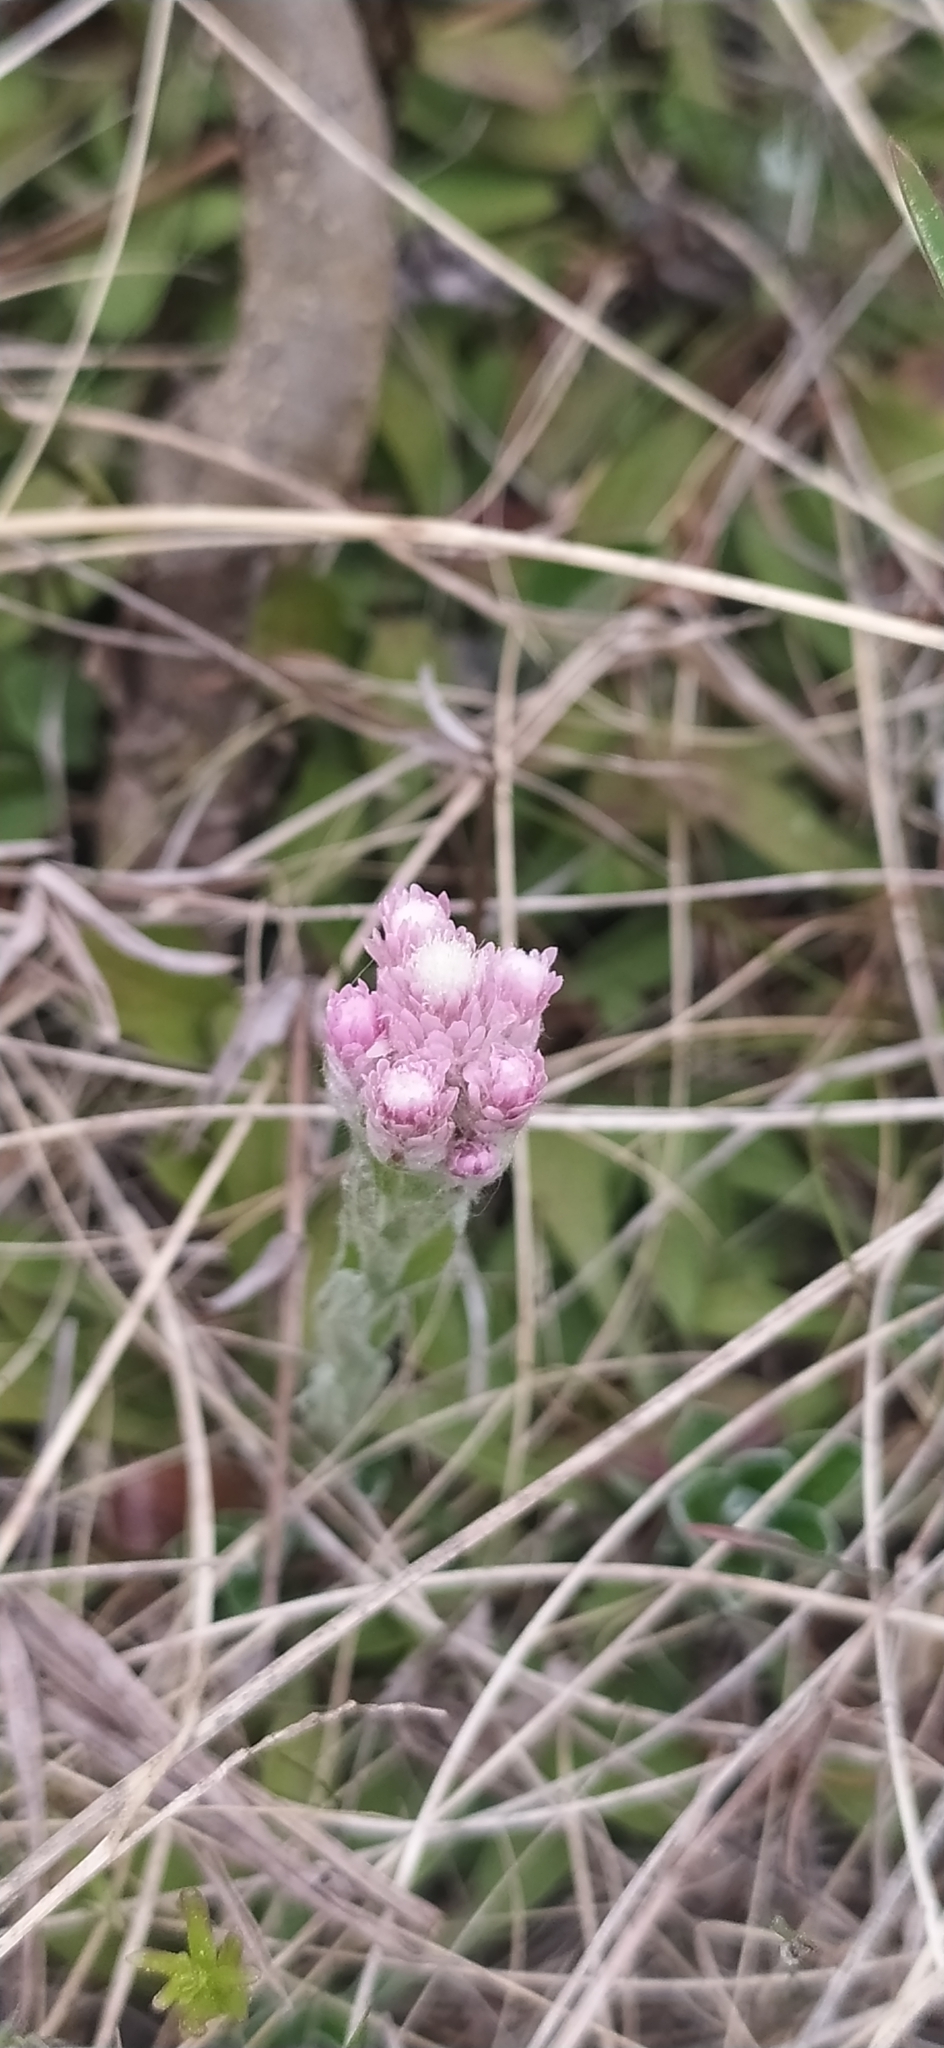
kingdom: Plantae
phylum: Tracheophyta
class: Magnoliopsida
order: Asterales
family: Asteraceae
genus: Antennaria
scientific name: Antennaria dioica
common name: Mountain everlasting
